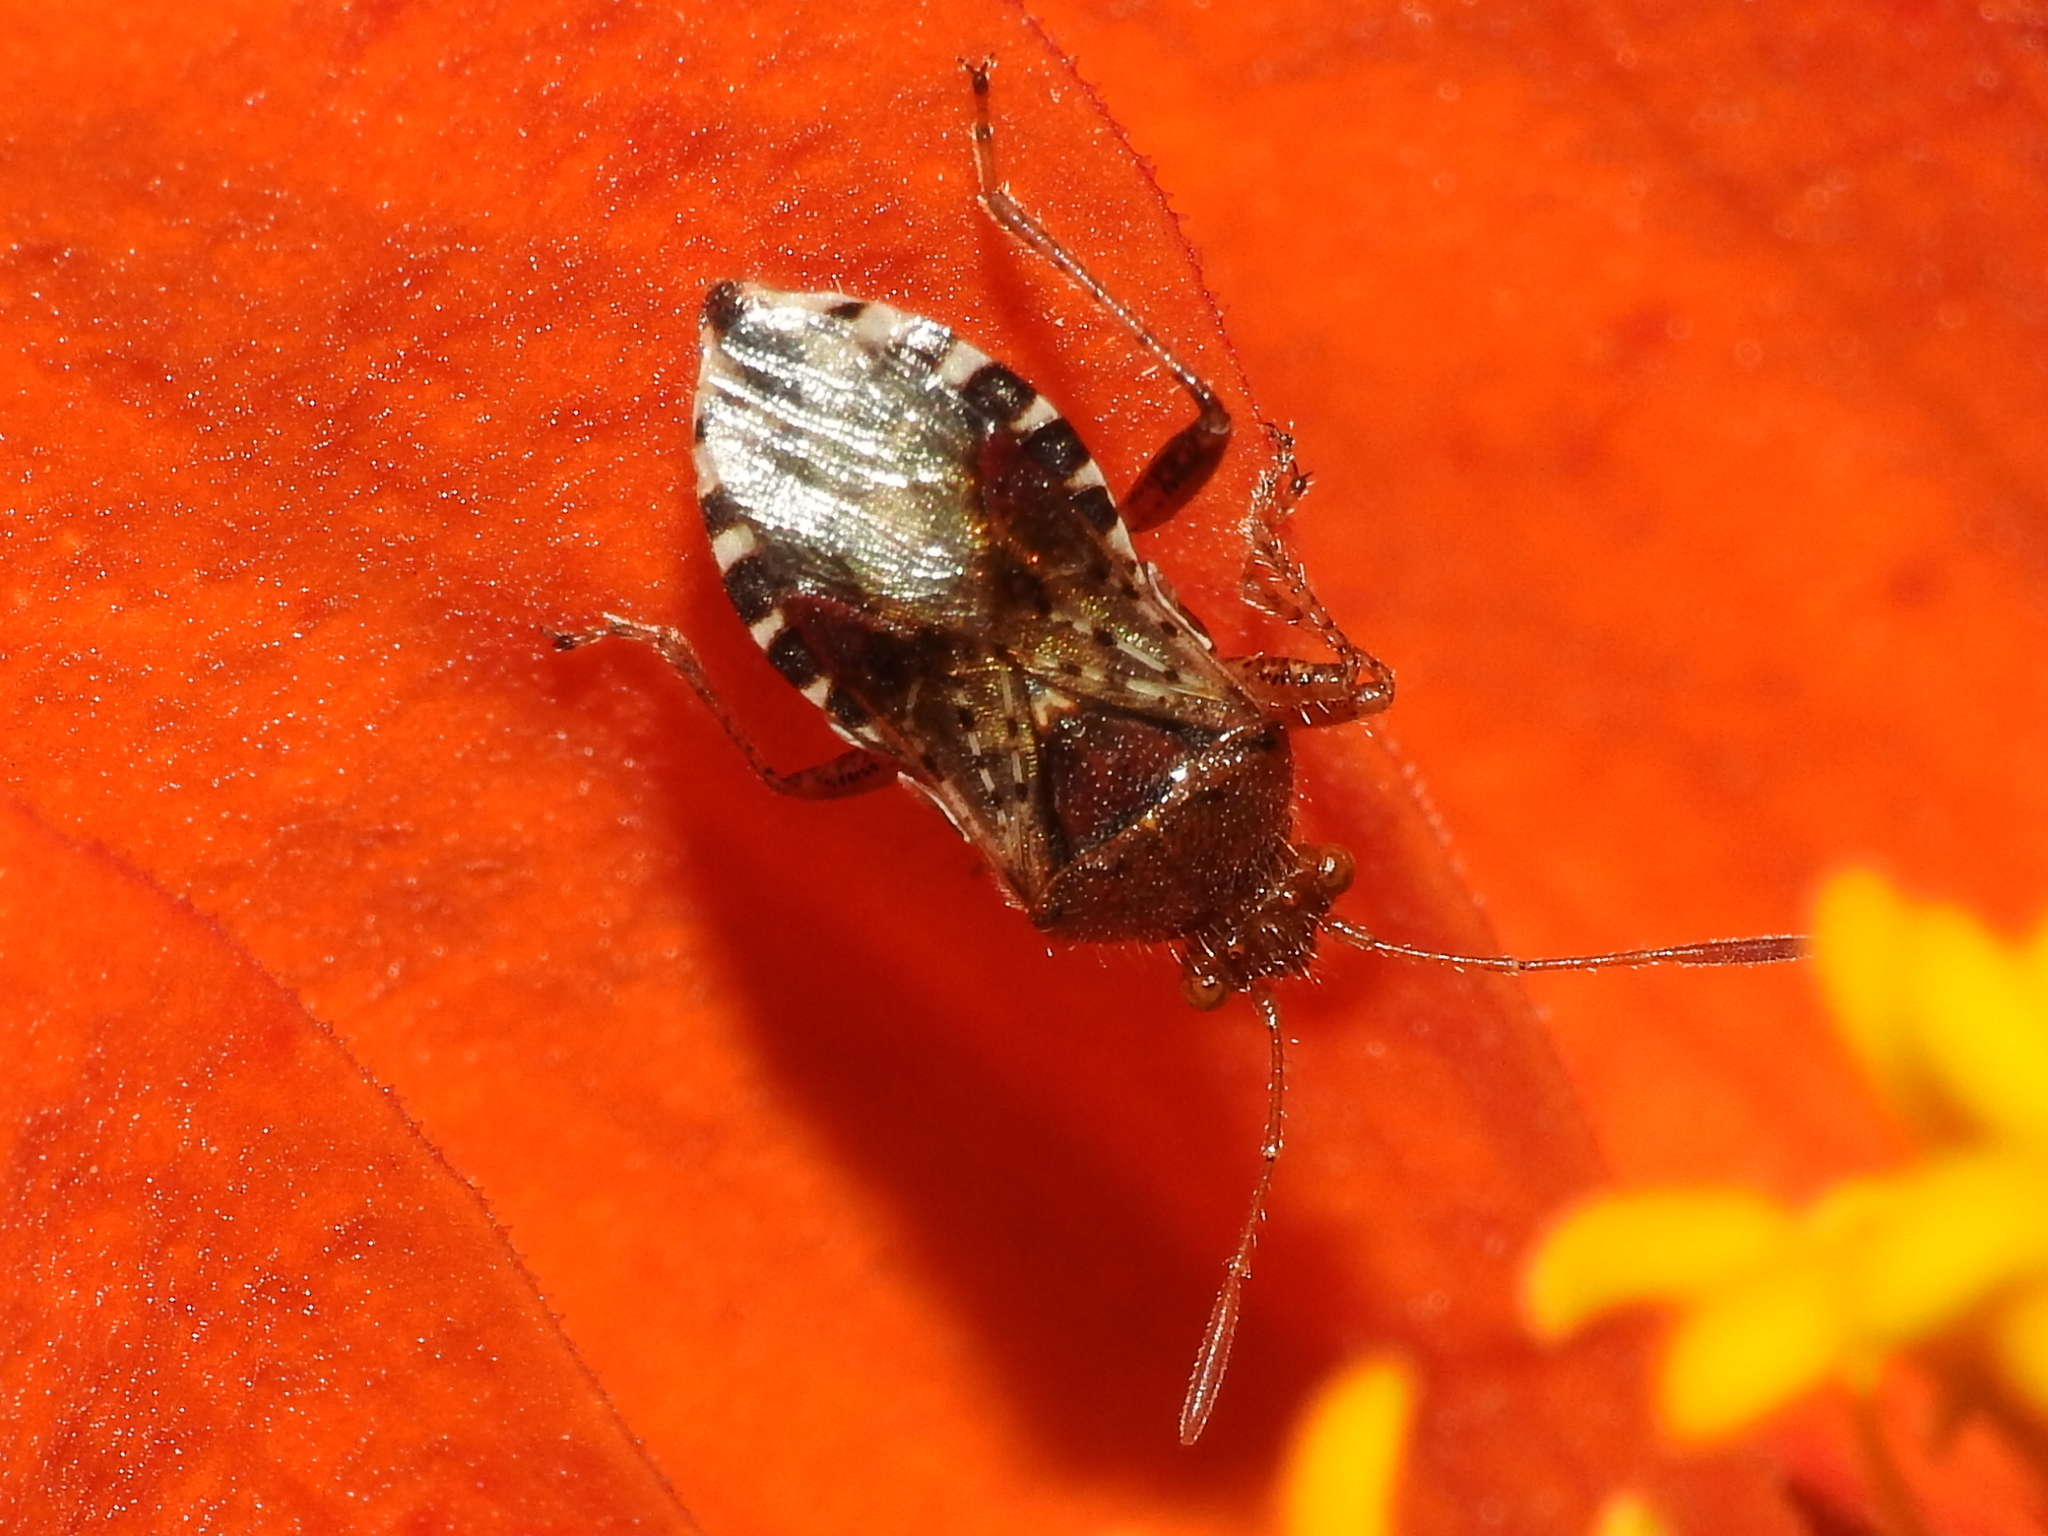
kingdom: Animalia
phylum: Arthropoda
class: Insecta
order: Hemiptera
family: Rhopalidae
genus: Rhopalus
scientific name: Rhopalus subrufus
